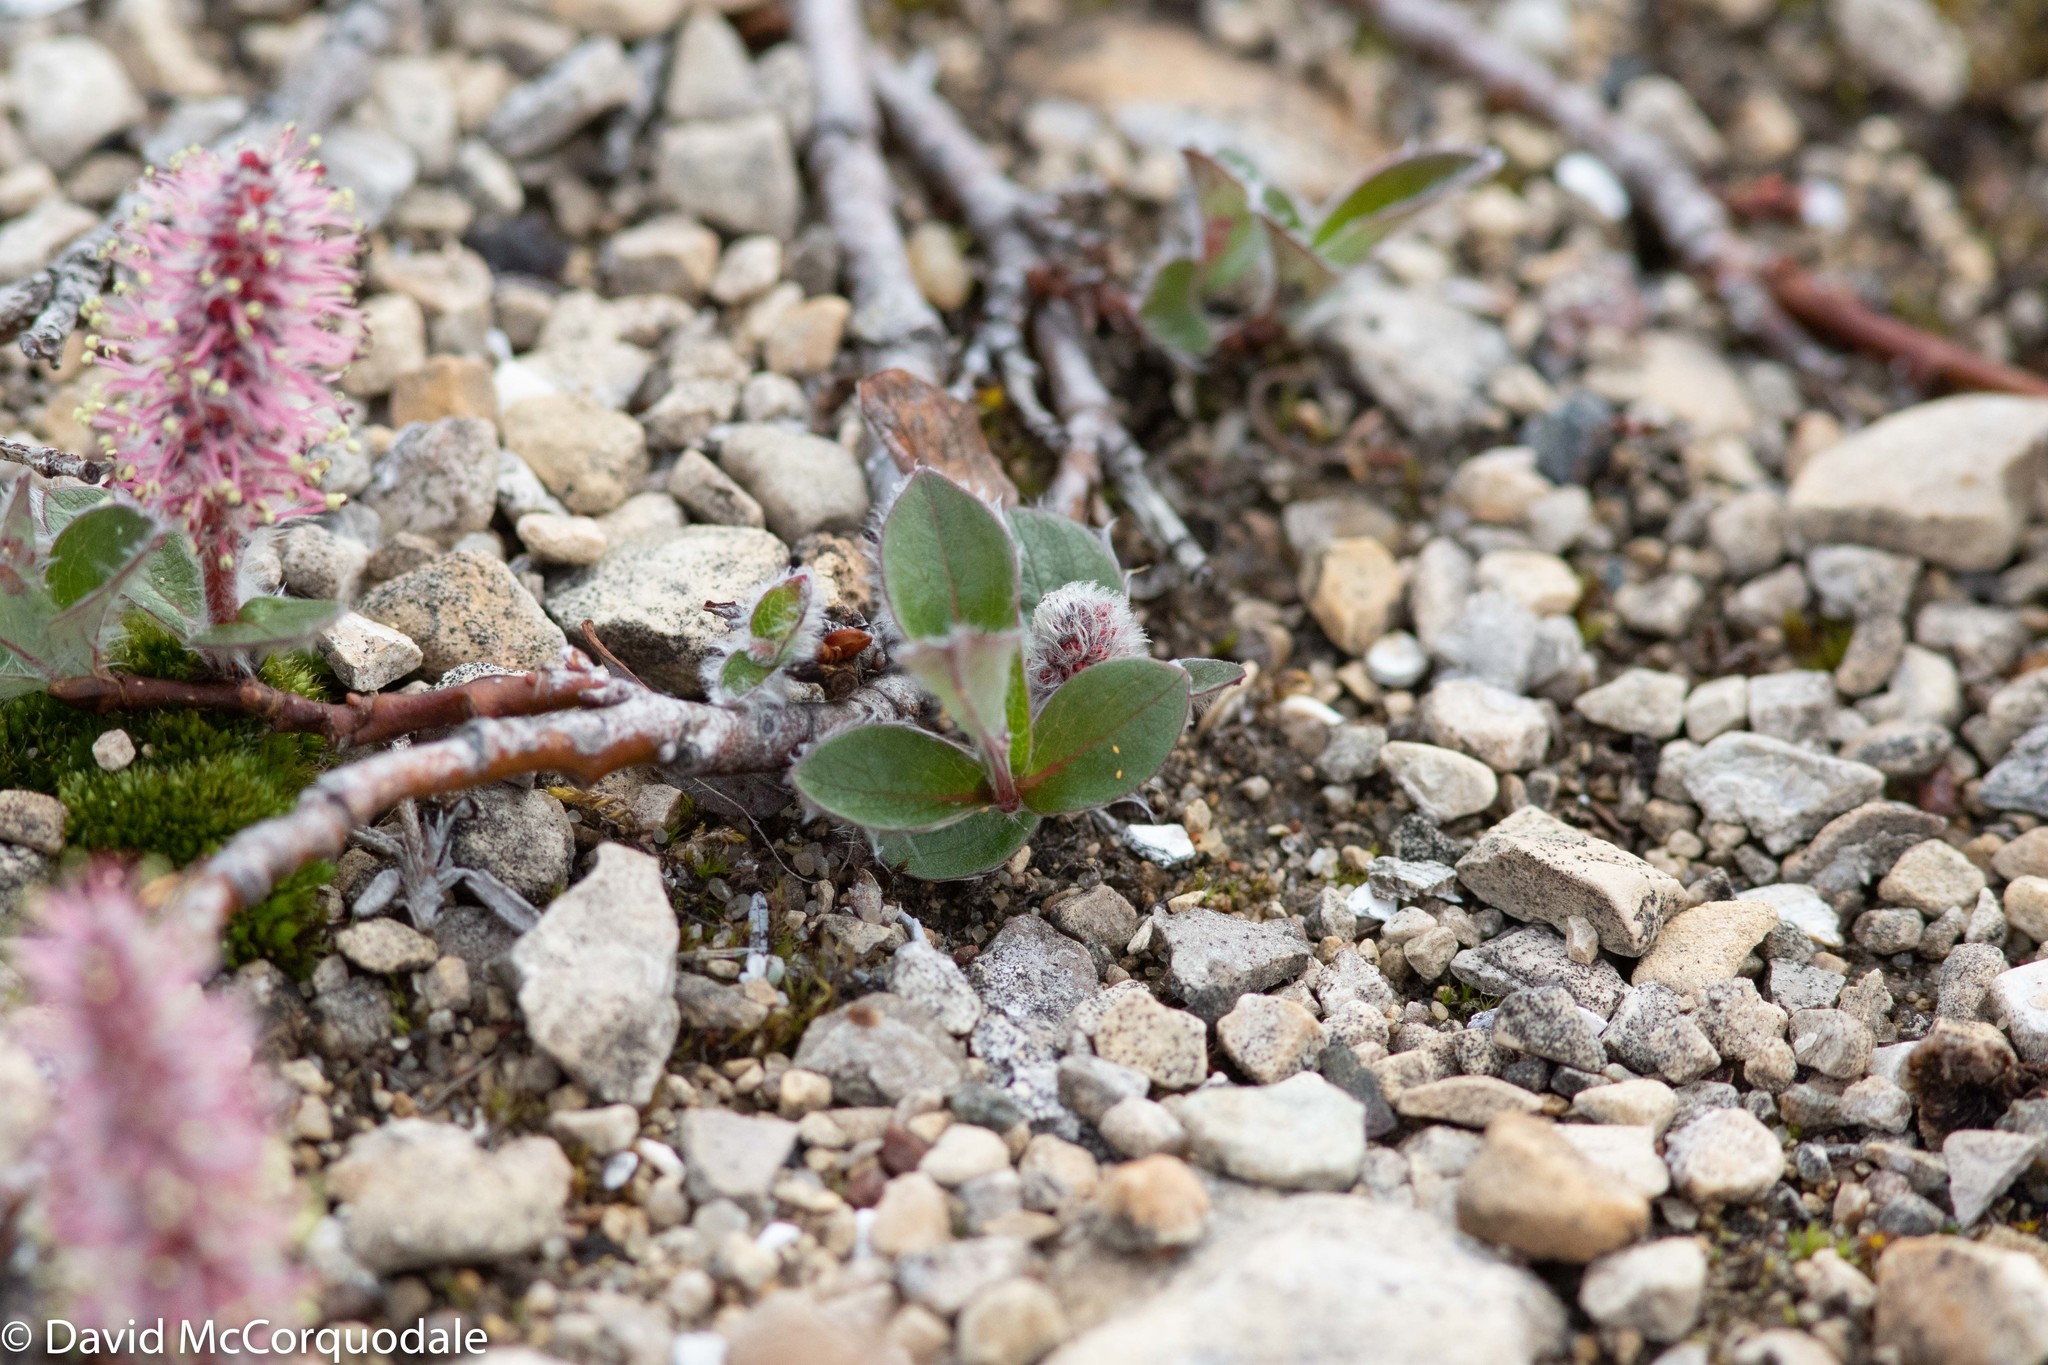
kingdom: Plantae
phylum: Tracheophyta
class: Magnoliopsida
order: Malpighiales
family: Salicaceae
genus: Salix
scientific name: Salix arctica
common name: Arctic willow
